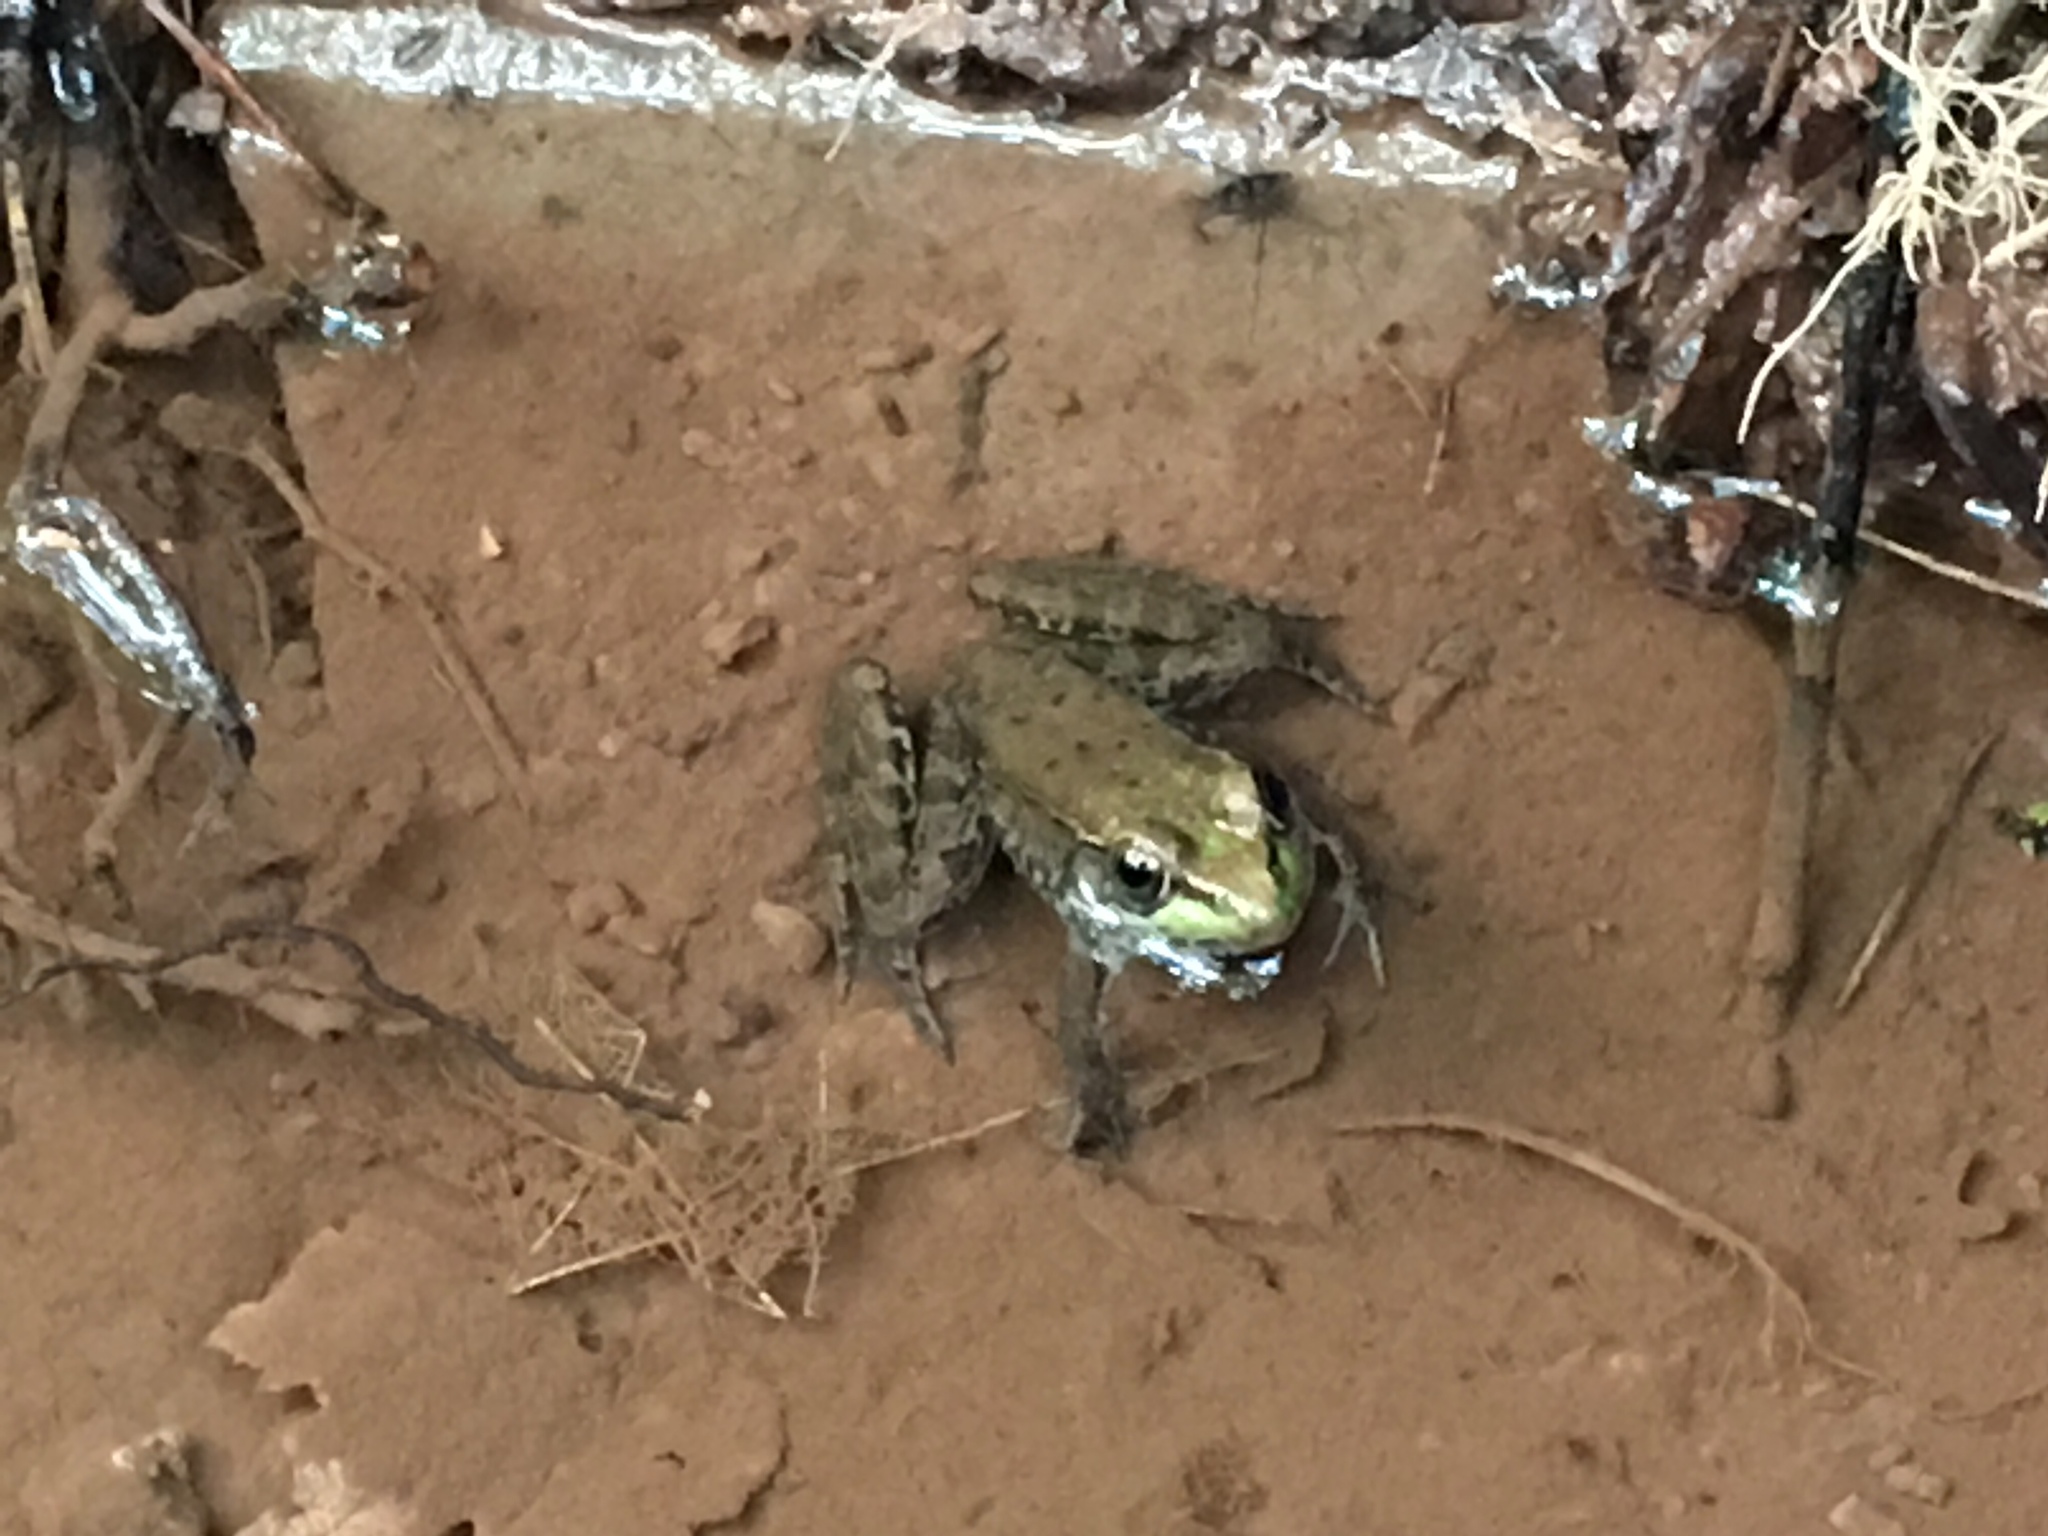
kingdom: Animalia
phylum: Chordata
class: Amphibia
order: Anura
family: Ranidae
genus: Lithobates
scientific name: Lithobates clamitans
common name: Green frog
